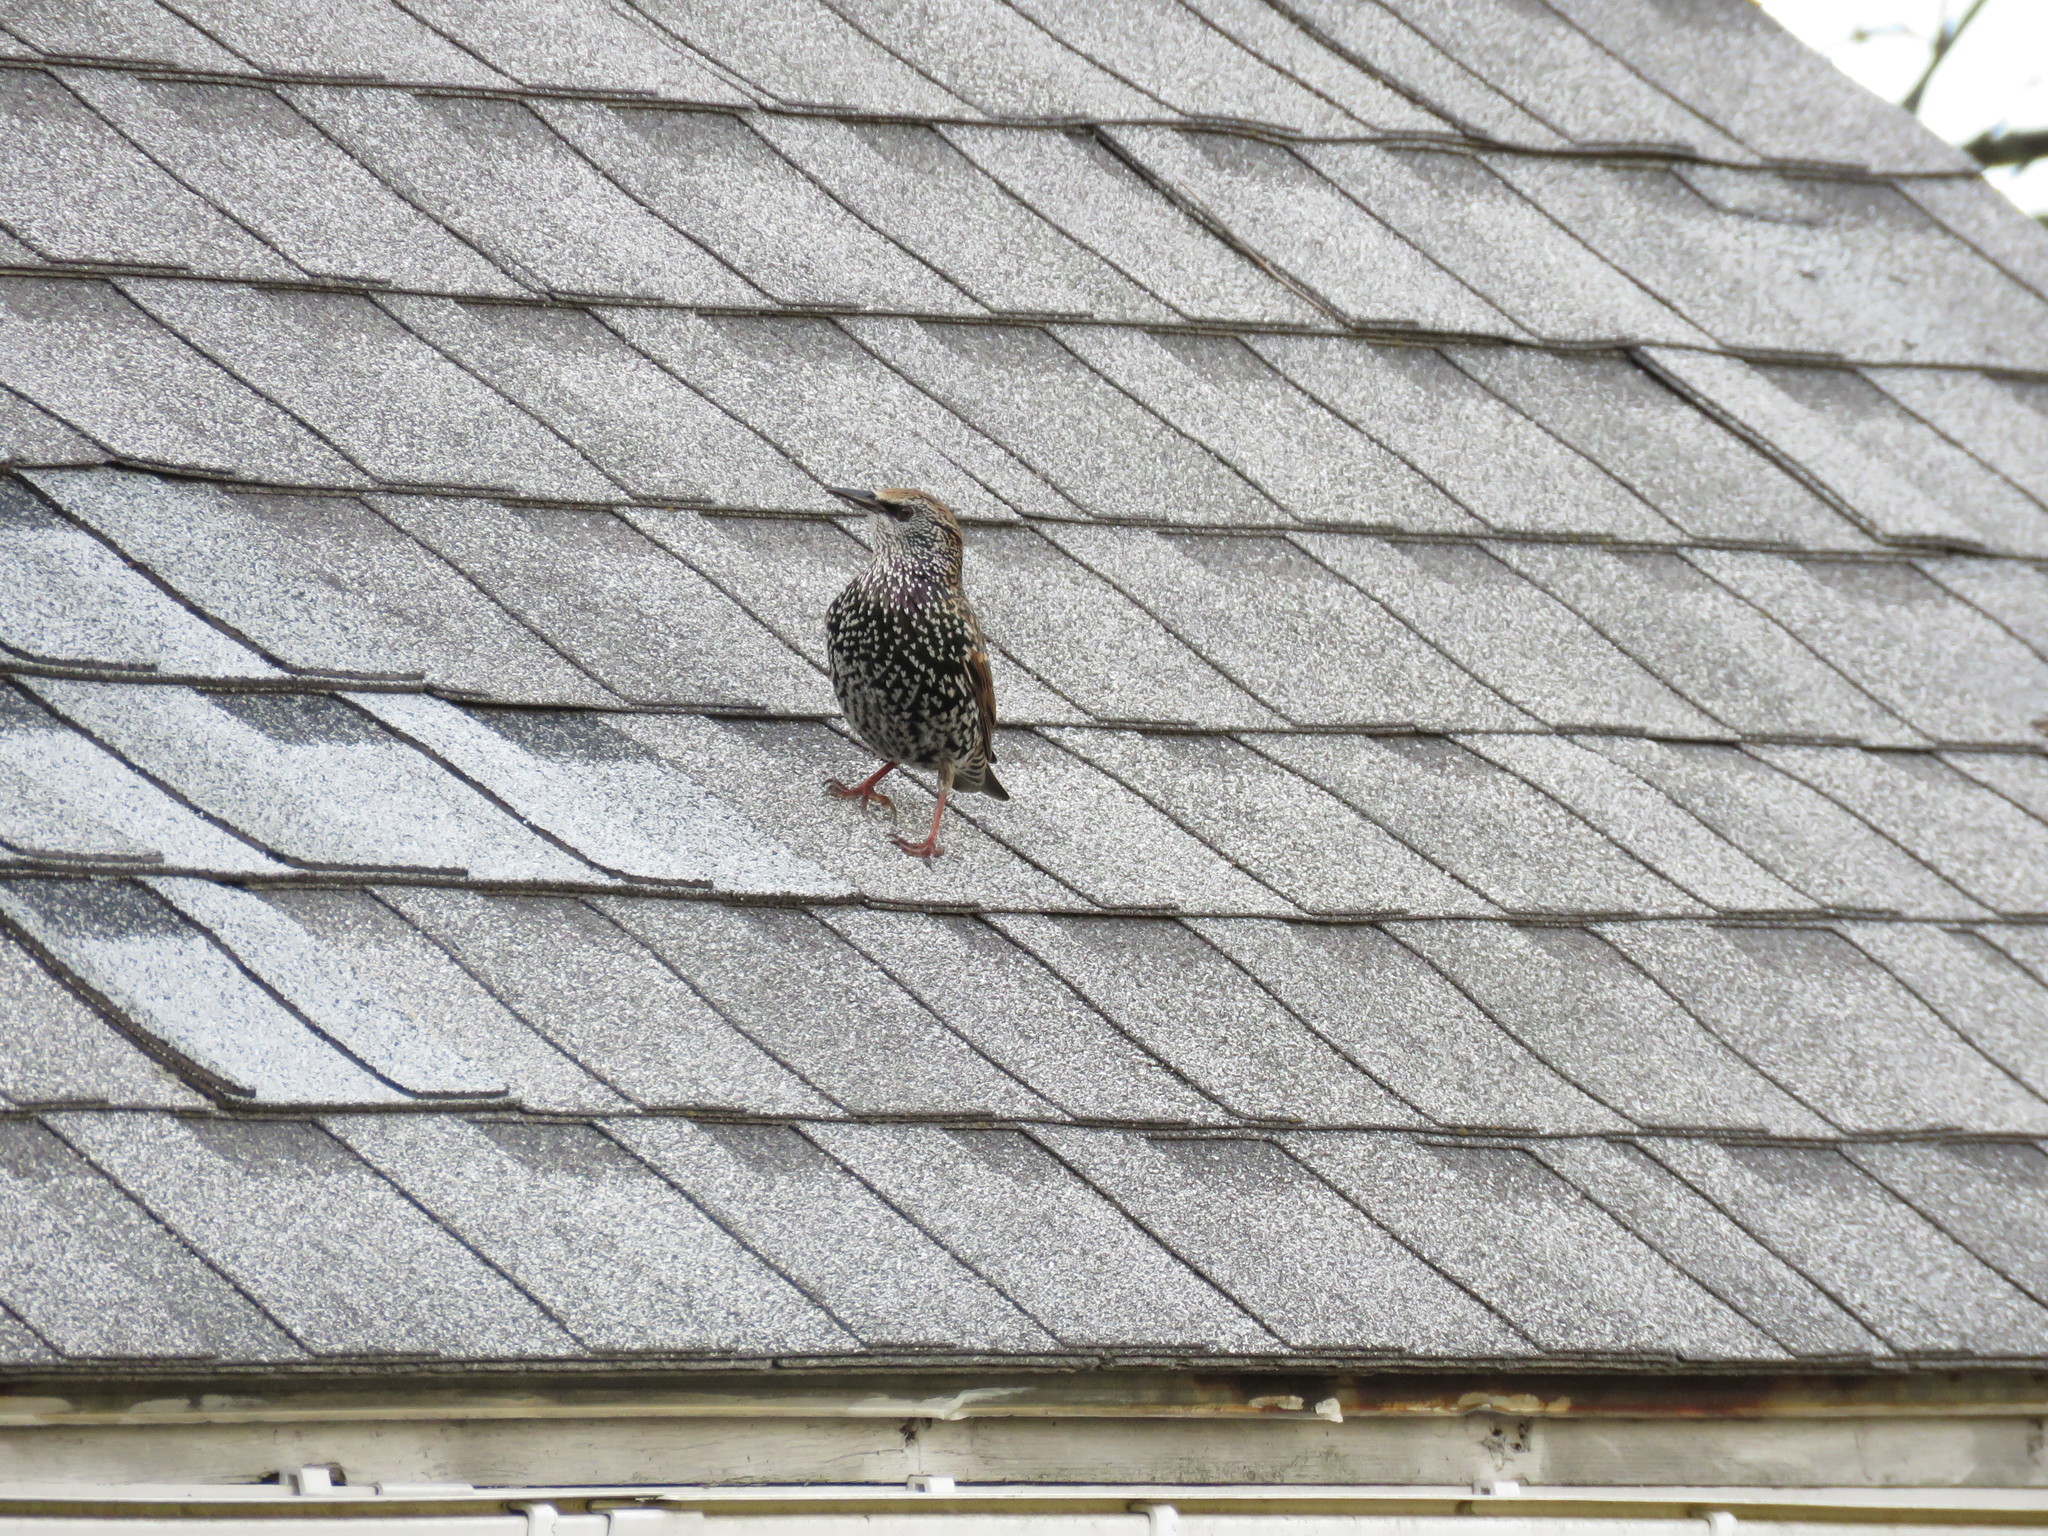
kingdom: Animalia
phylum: Chordata
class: Aves
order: Passeriformes
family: Sturnidae
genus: Sturnus
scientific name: Sturnus vulgaris
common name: Common starling
